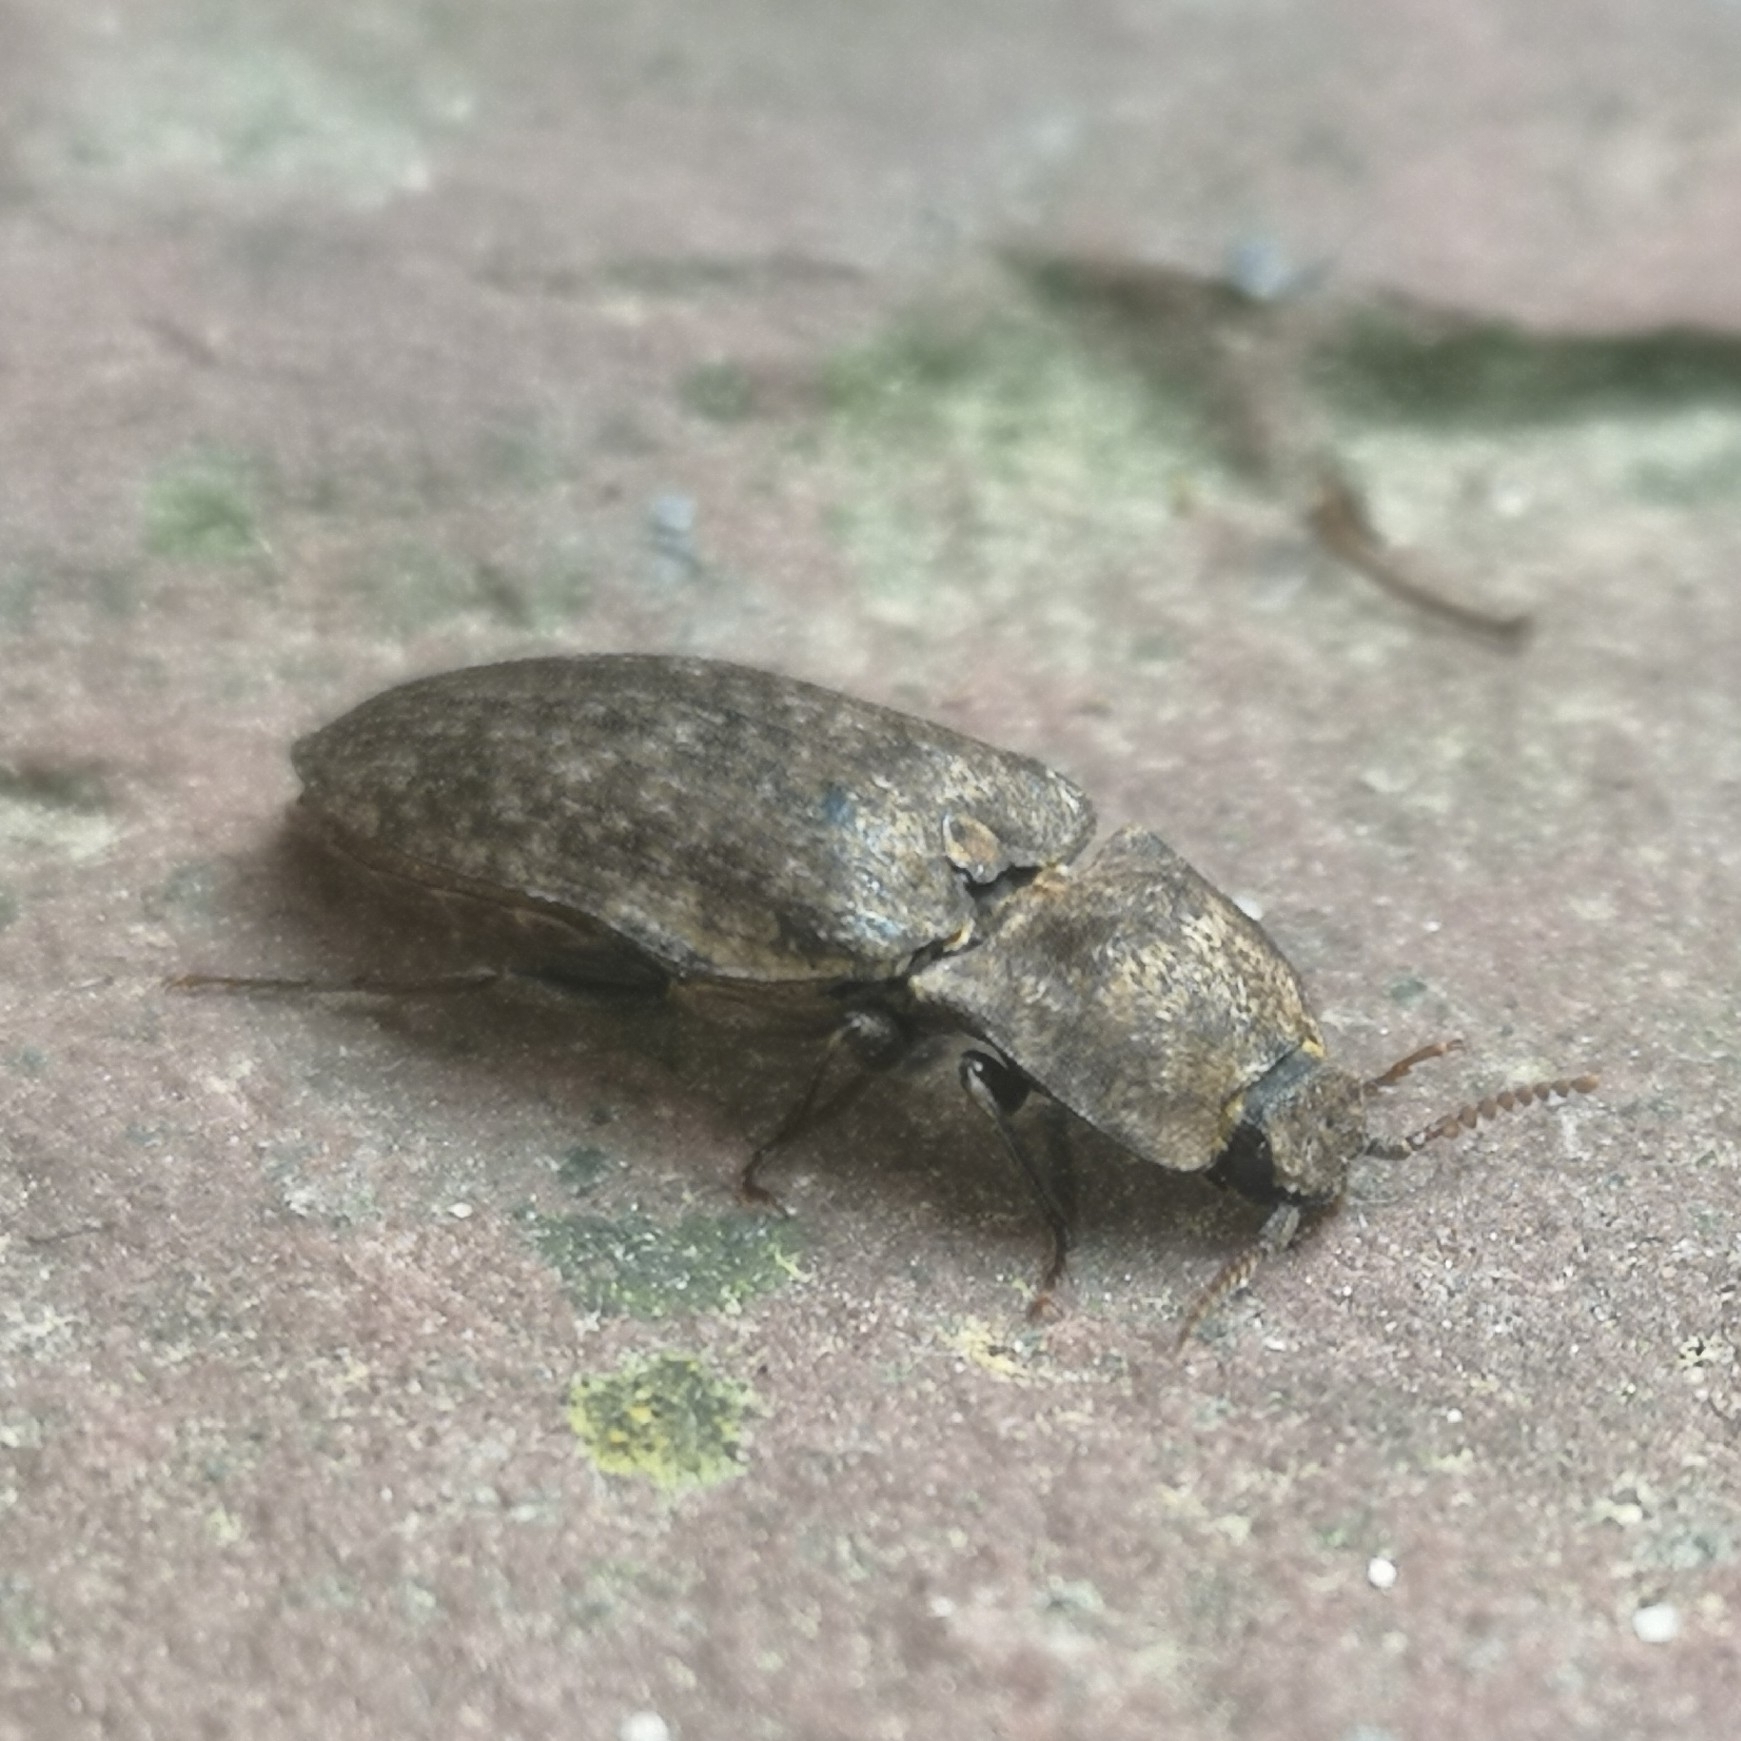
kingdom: Animalia
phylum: Arthropoda
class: Insecta
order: Coleoptera
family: Elateridae
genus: Agrypnus
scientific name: Agrypnus murinus
